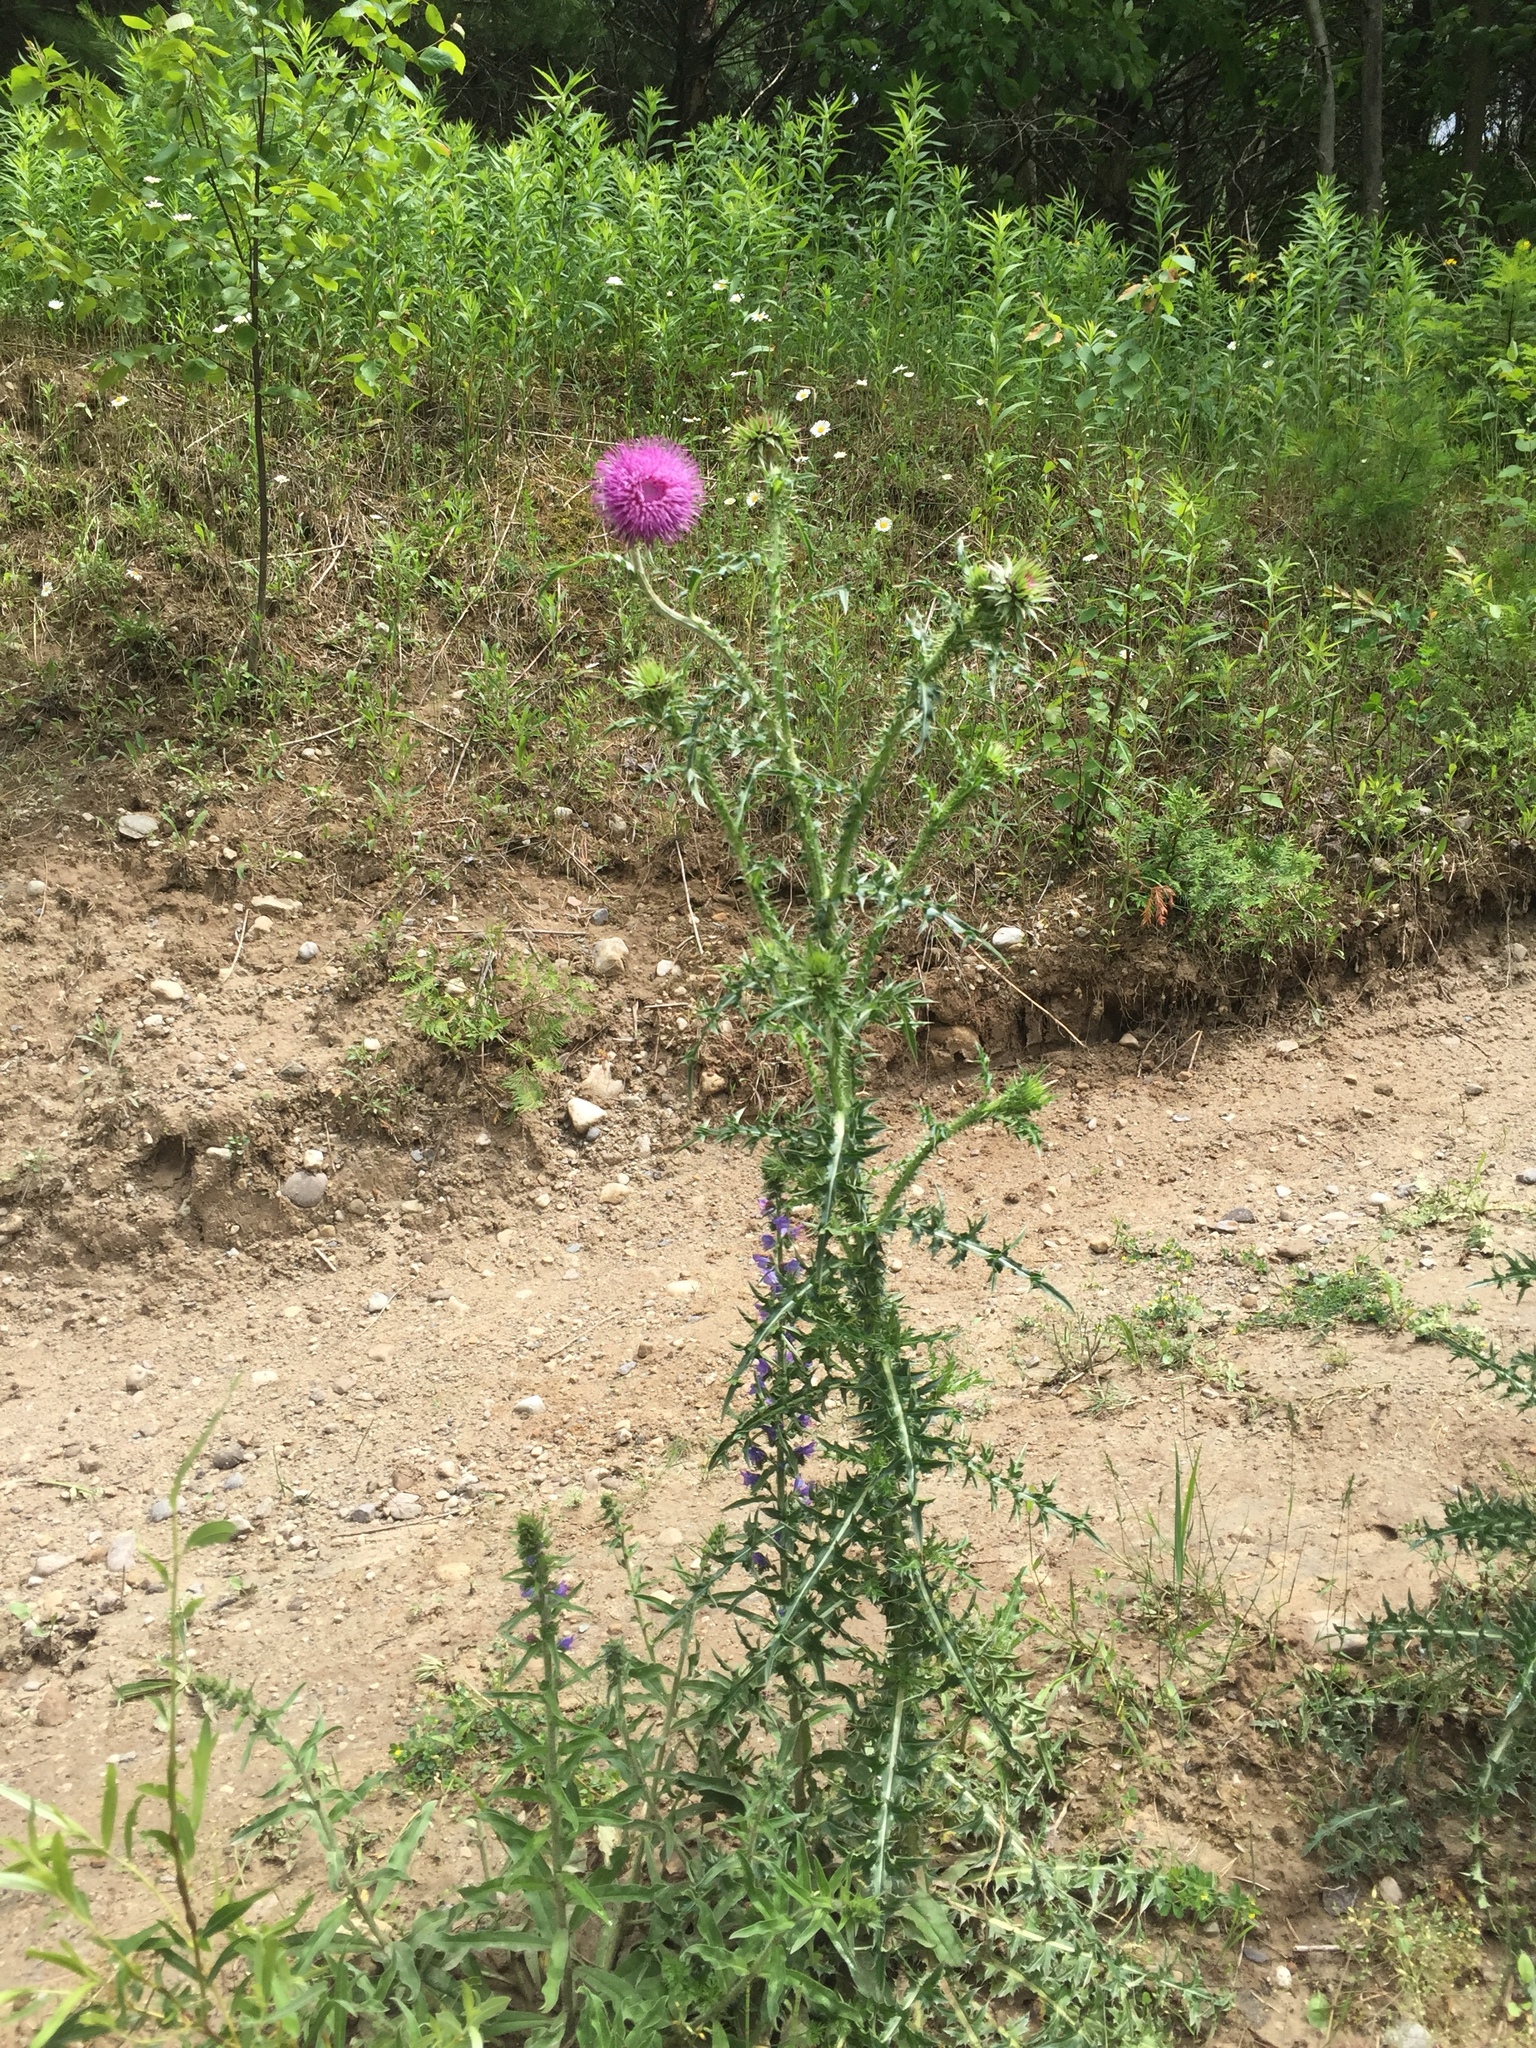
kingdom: Plantae
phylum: Tracheophyta
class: Magnoliopsida
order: Asterales
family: Asteraceae
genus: Carduus
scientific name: Carduus nutans
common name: Musk thistle
